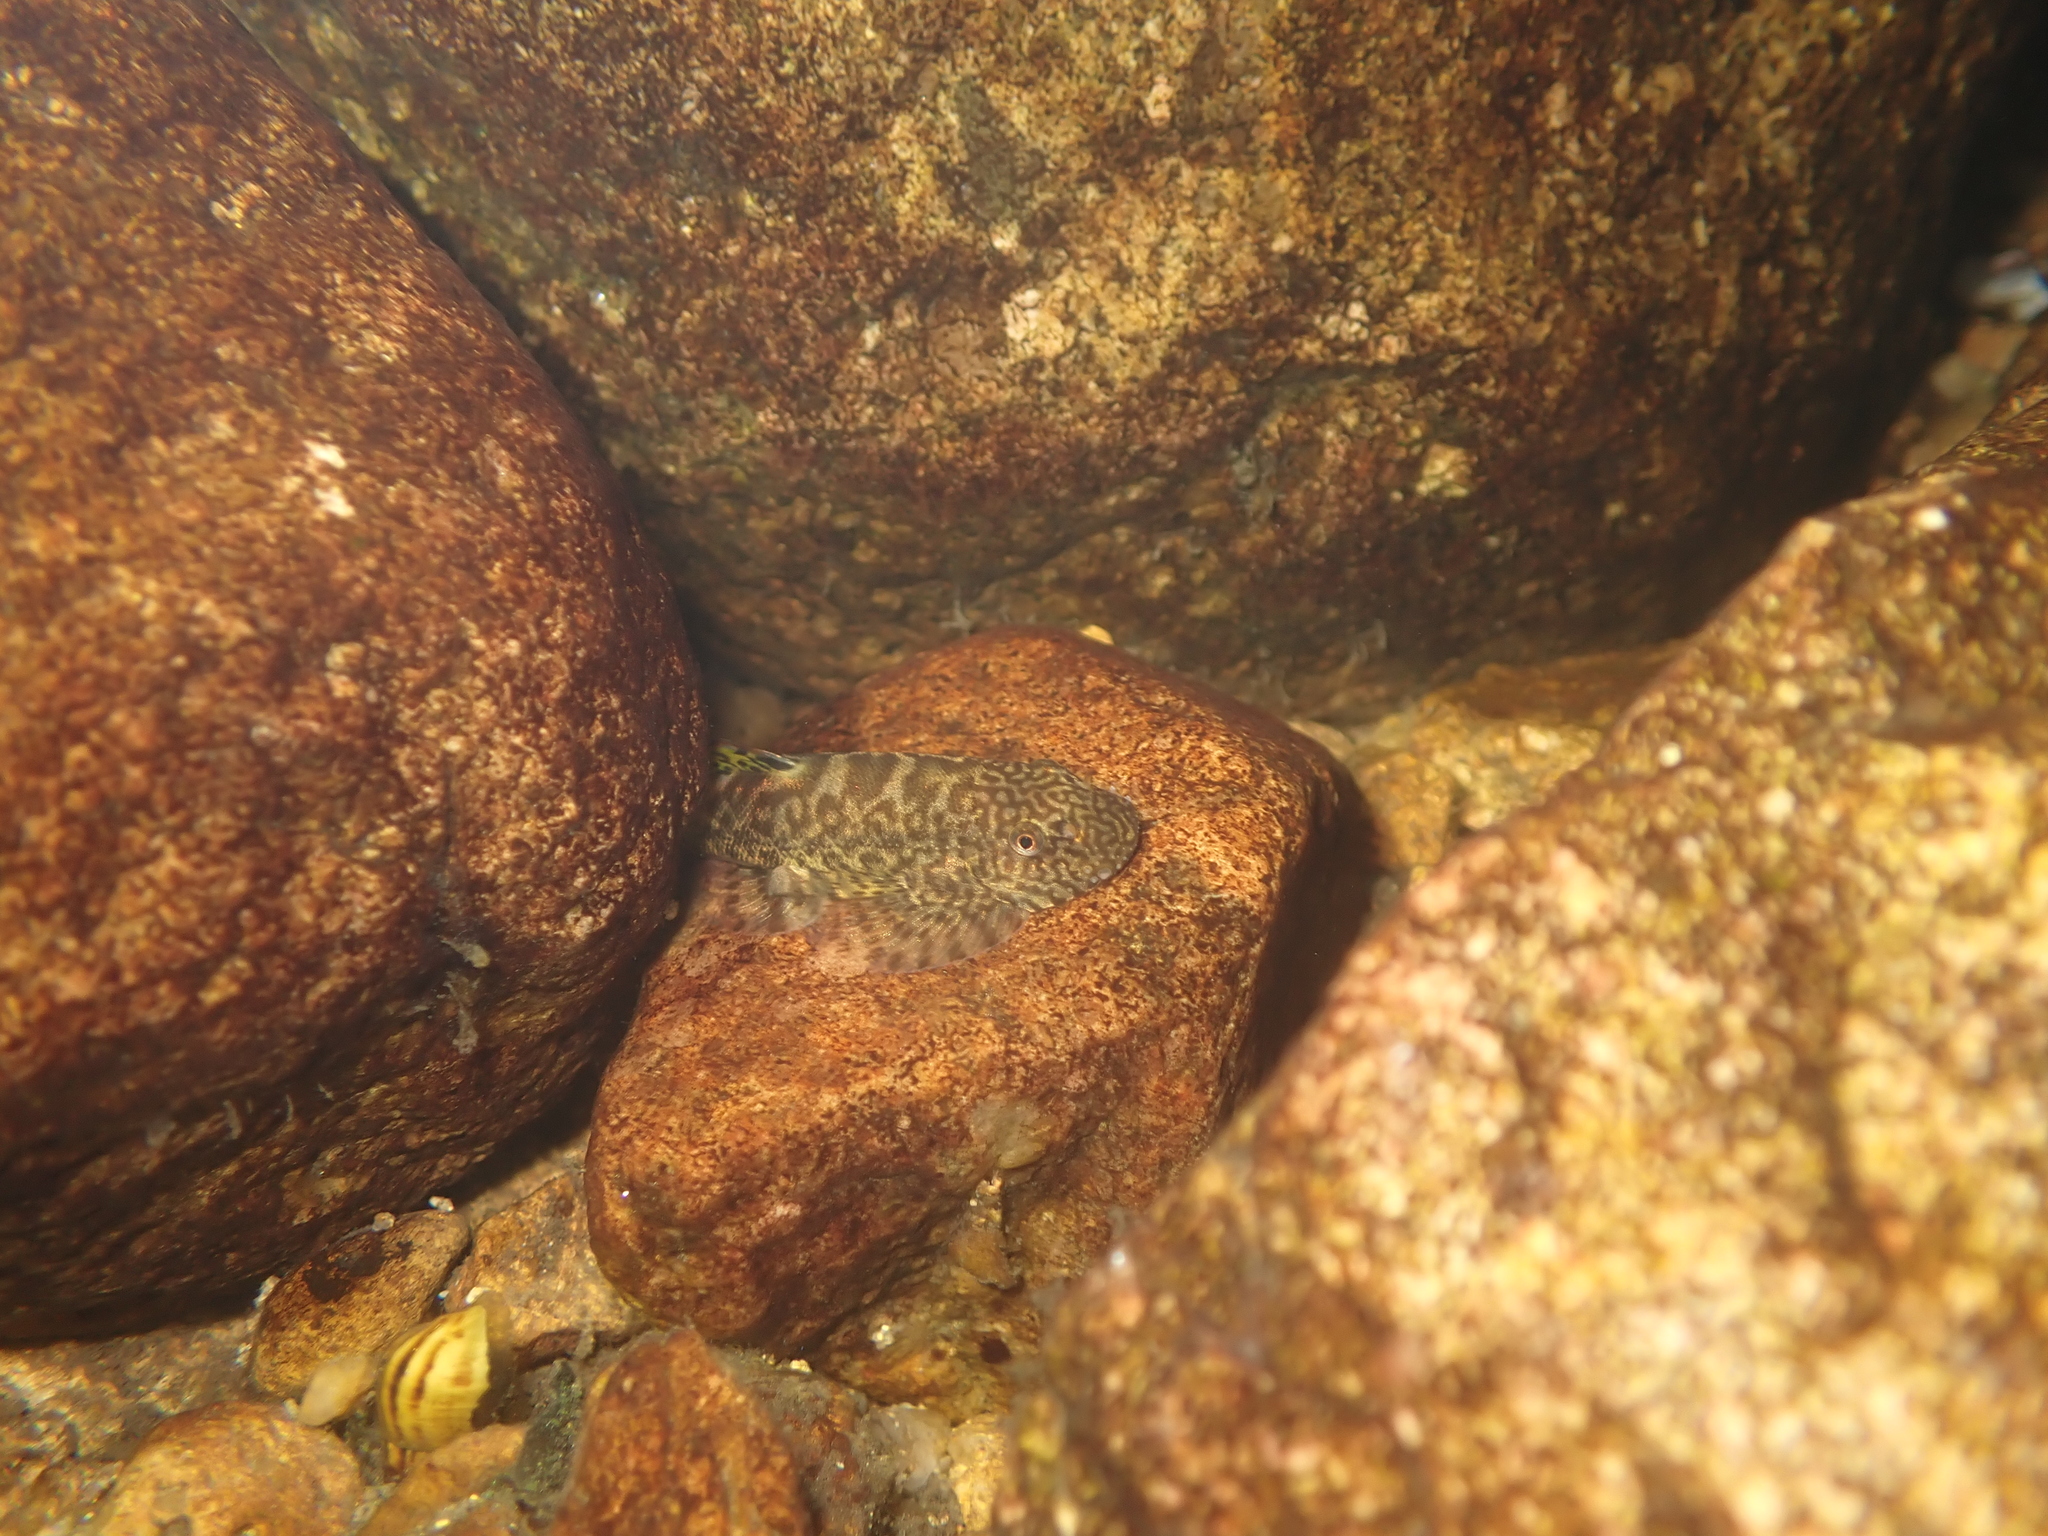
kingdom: Animalia
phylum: Chordata
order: Cypriniformes
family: Balitoridae
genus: Pseudogastromyzon
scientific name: Pseudogastromyzon myersi
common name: Sucker-belly loach
